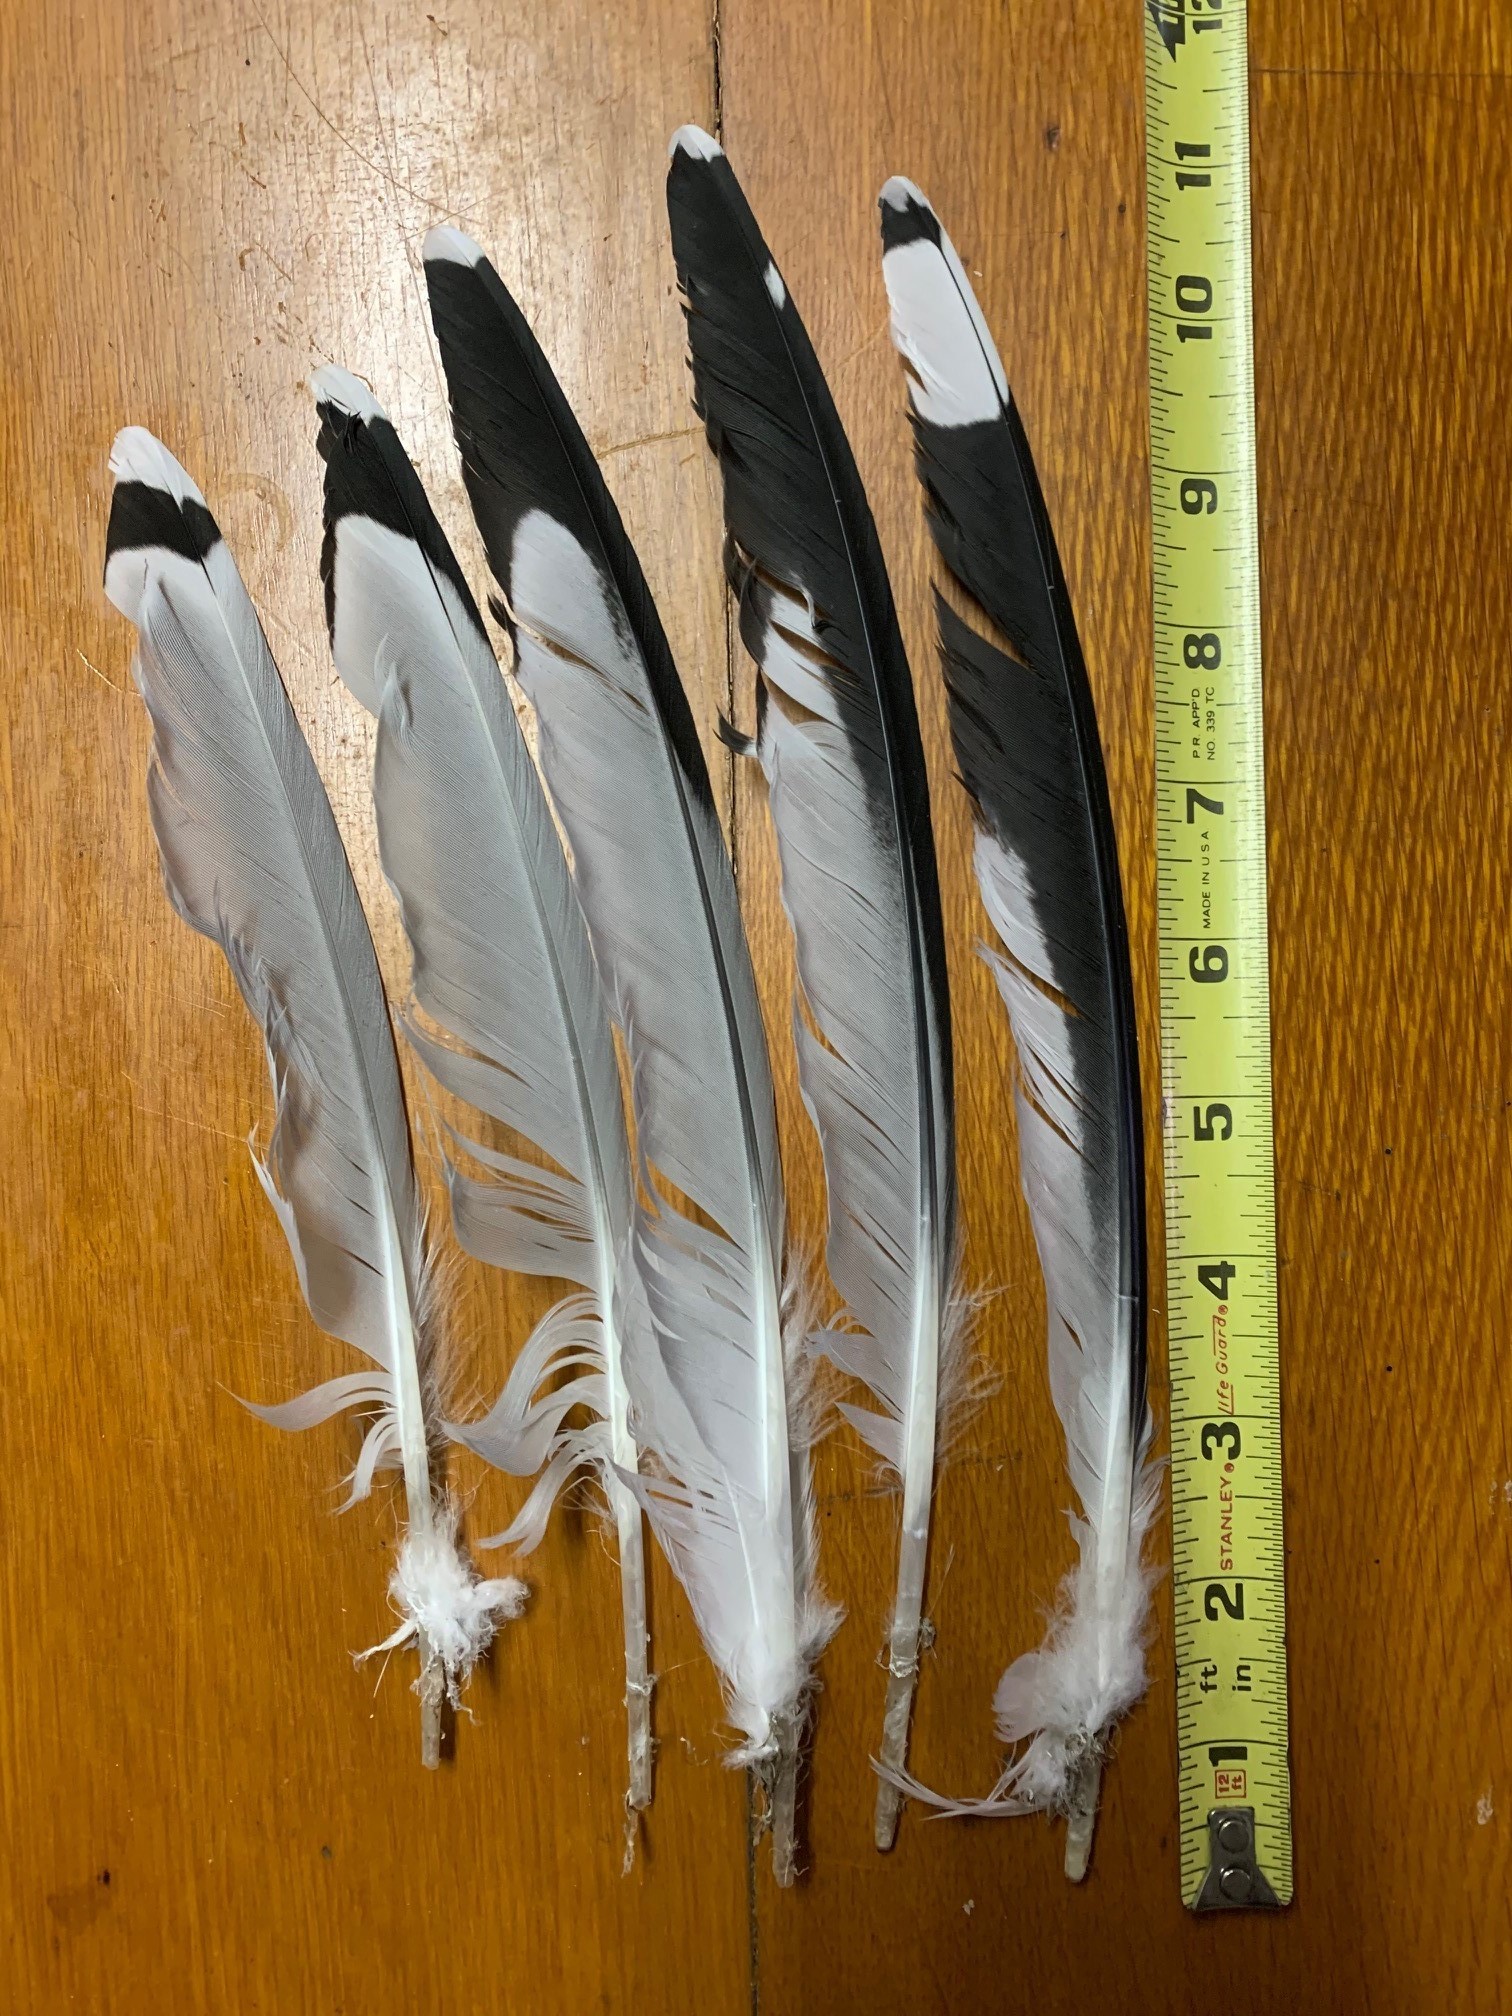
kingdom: Animalia
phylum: Chordata
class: Aves
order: Charadriiformes
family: Laridae
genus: Larus
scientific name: Larus delawarensis
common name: Ring-billed gull
